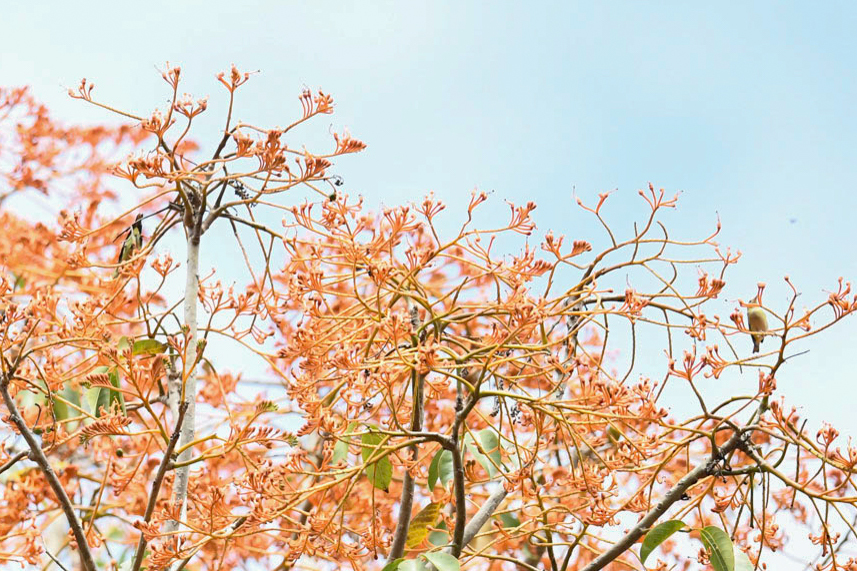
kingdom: Plantae
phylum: Tracheophyta
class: Magnoliopsida
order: Malvales
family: Malvaceae
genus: Bernoullia
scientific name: Bernoullia flammea
